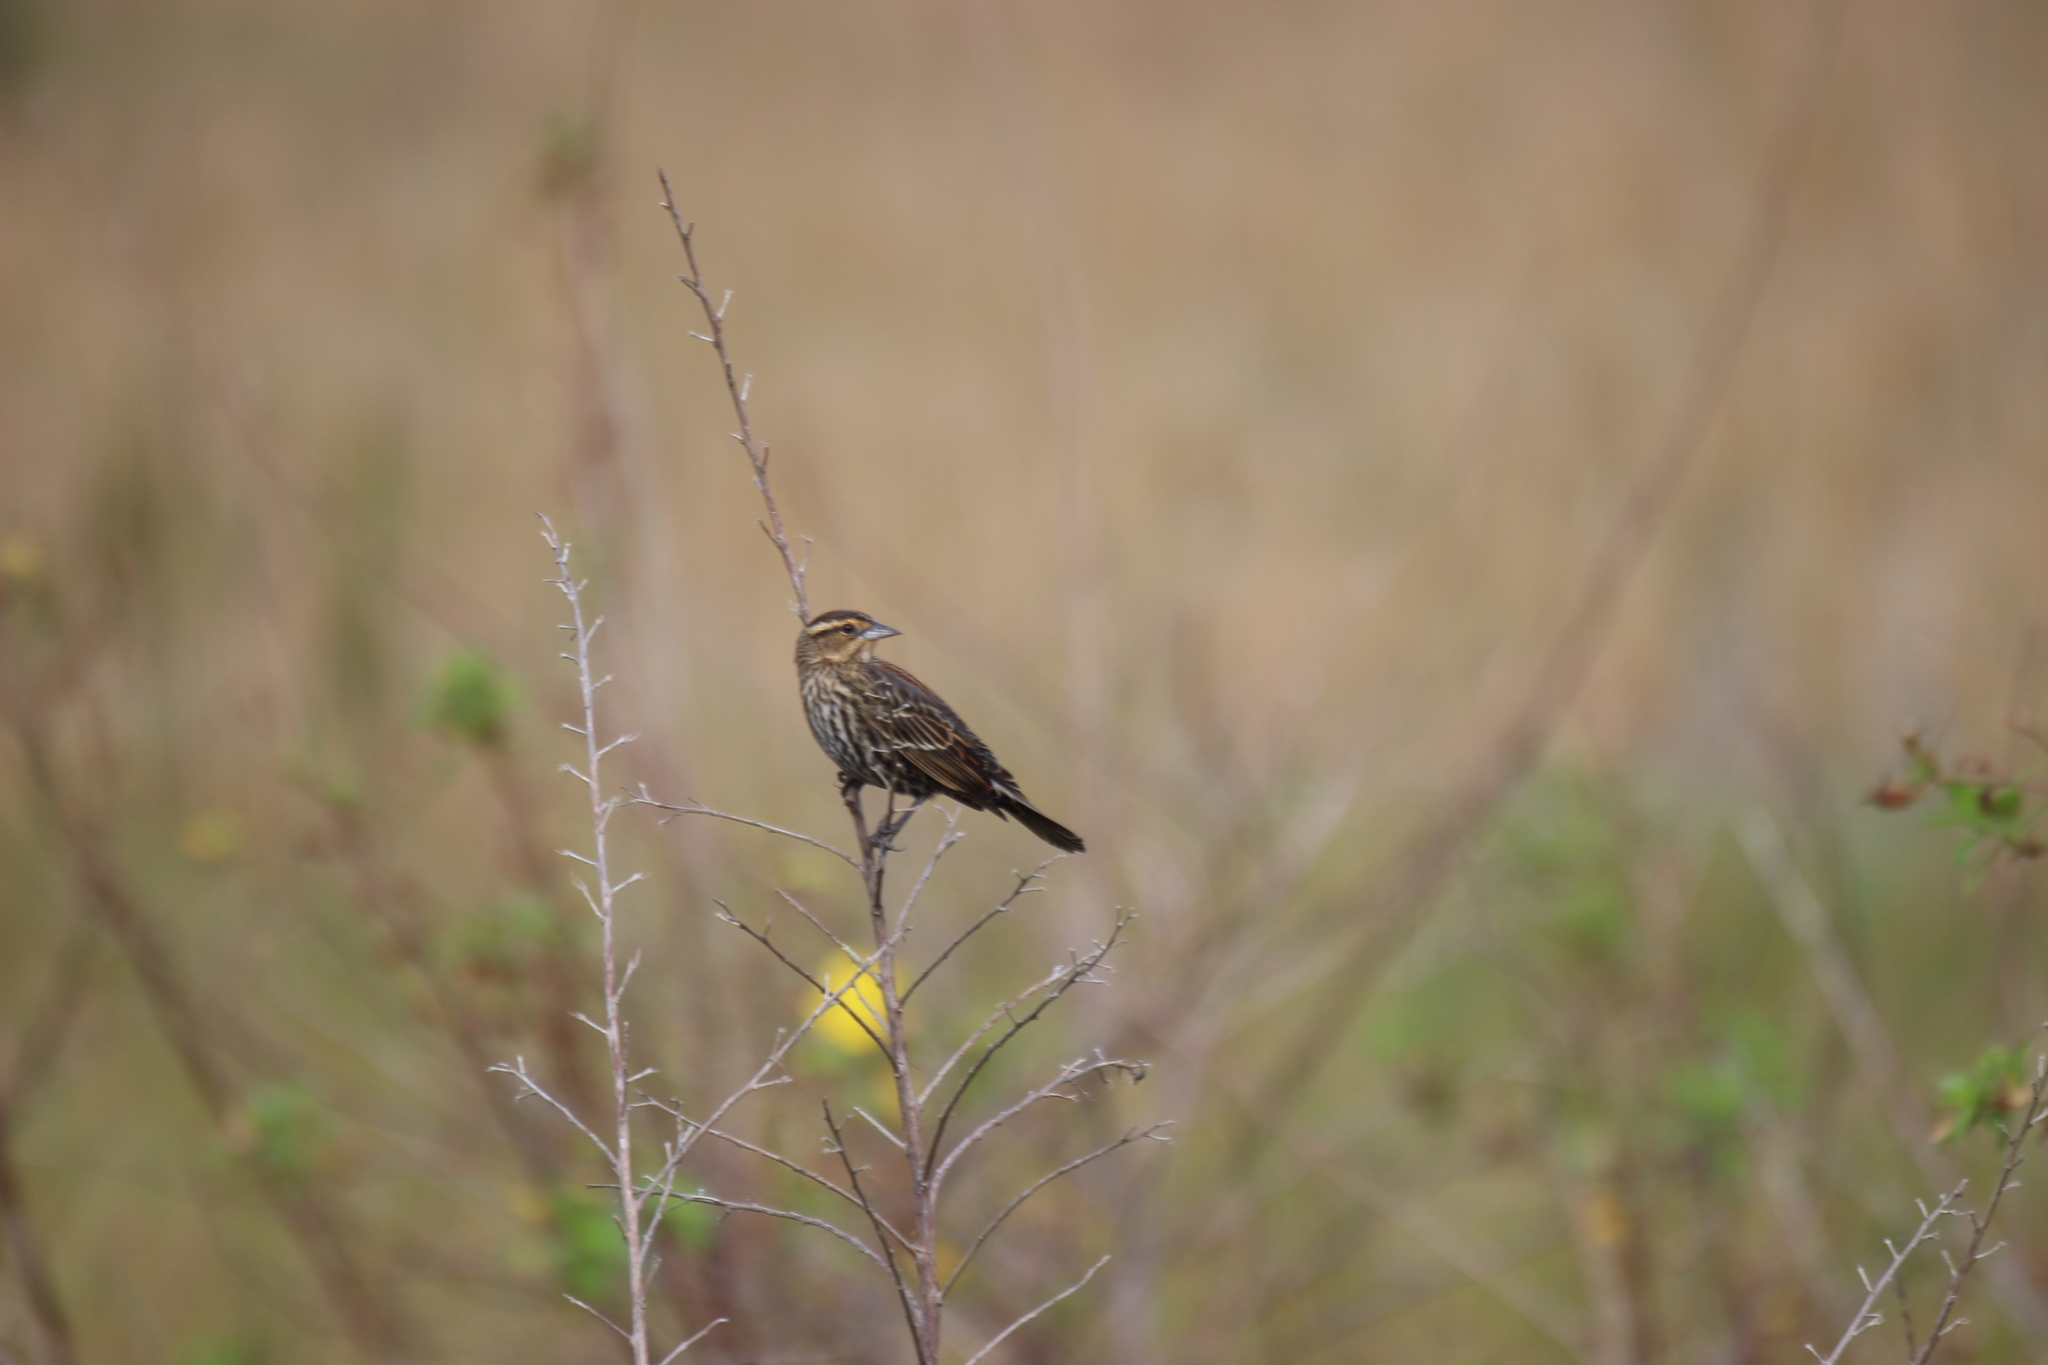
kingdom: Animalia
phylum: Chordata
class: Aves
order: Passeriformes
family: Icteridae
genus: Agelaius
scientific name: Agelaius phoeniceus
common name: Red-winged blackbird
